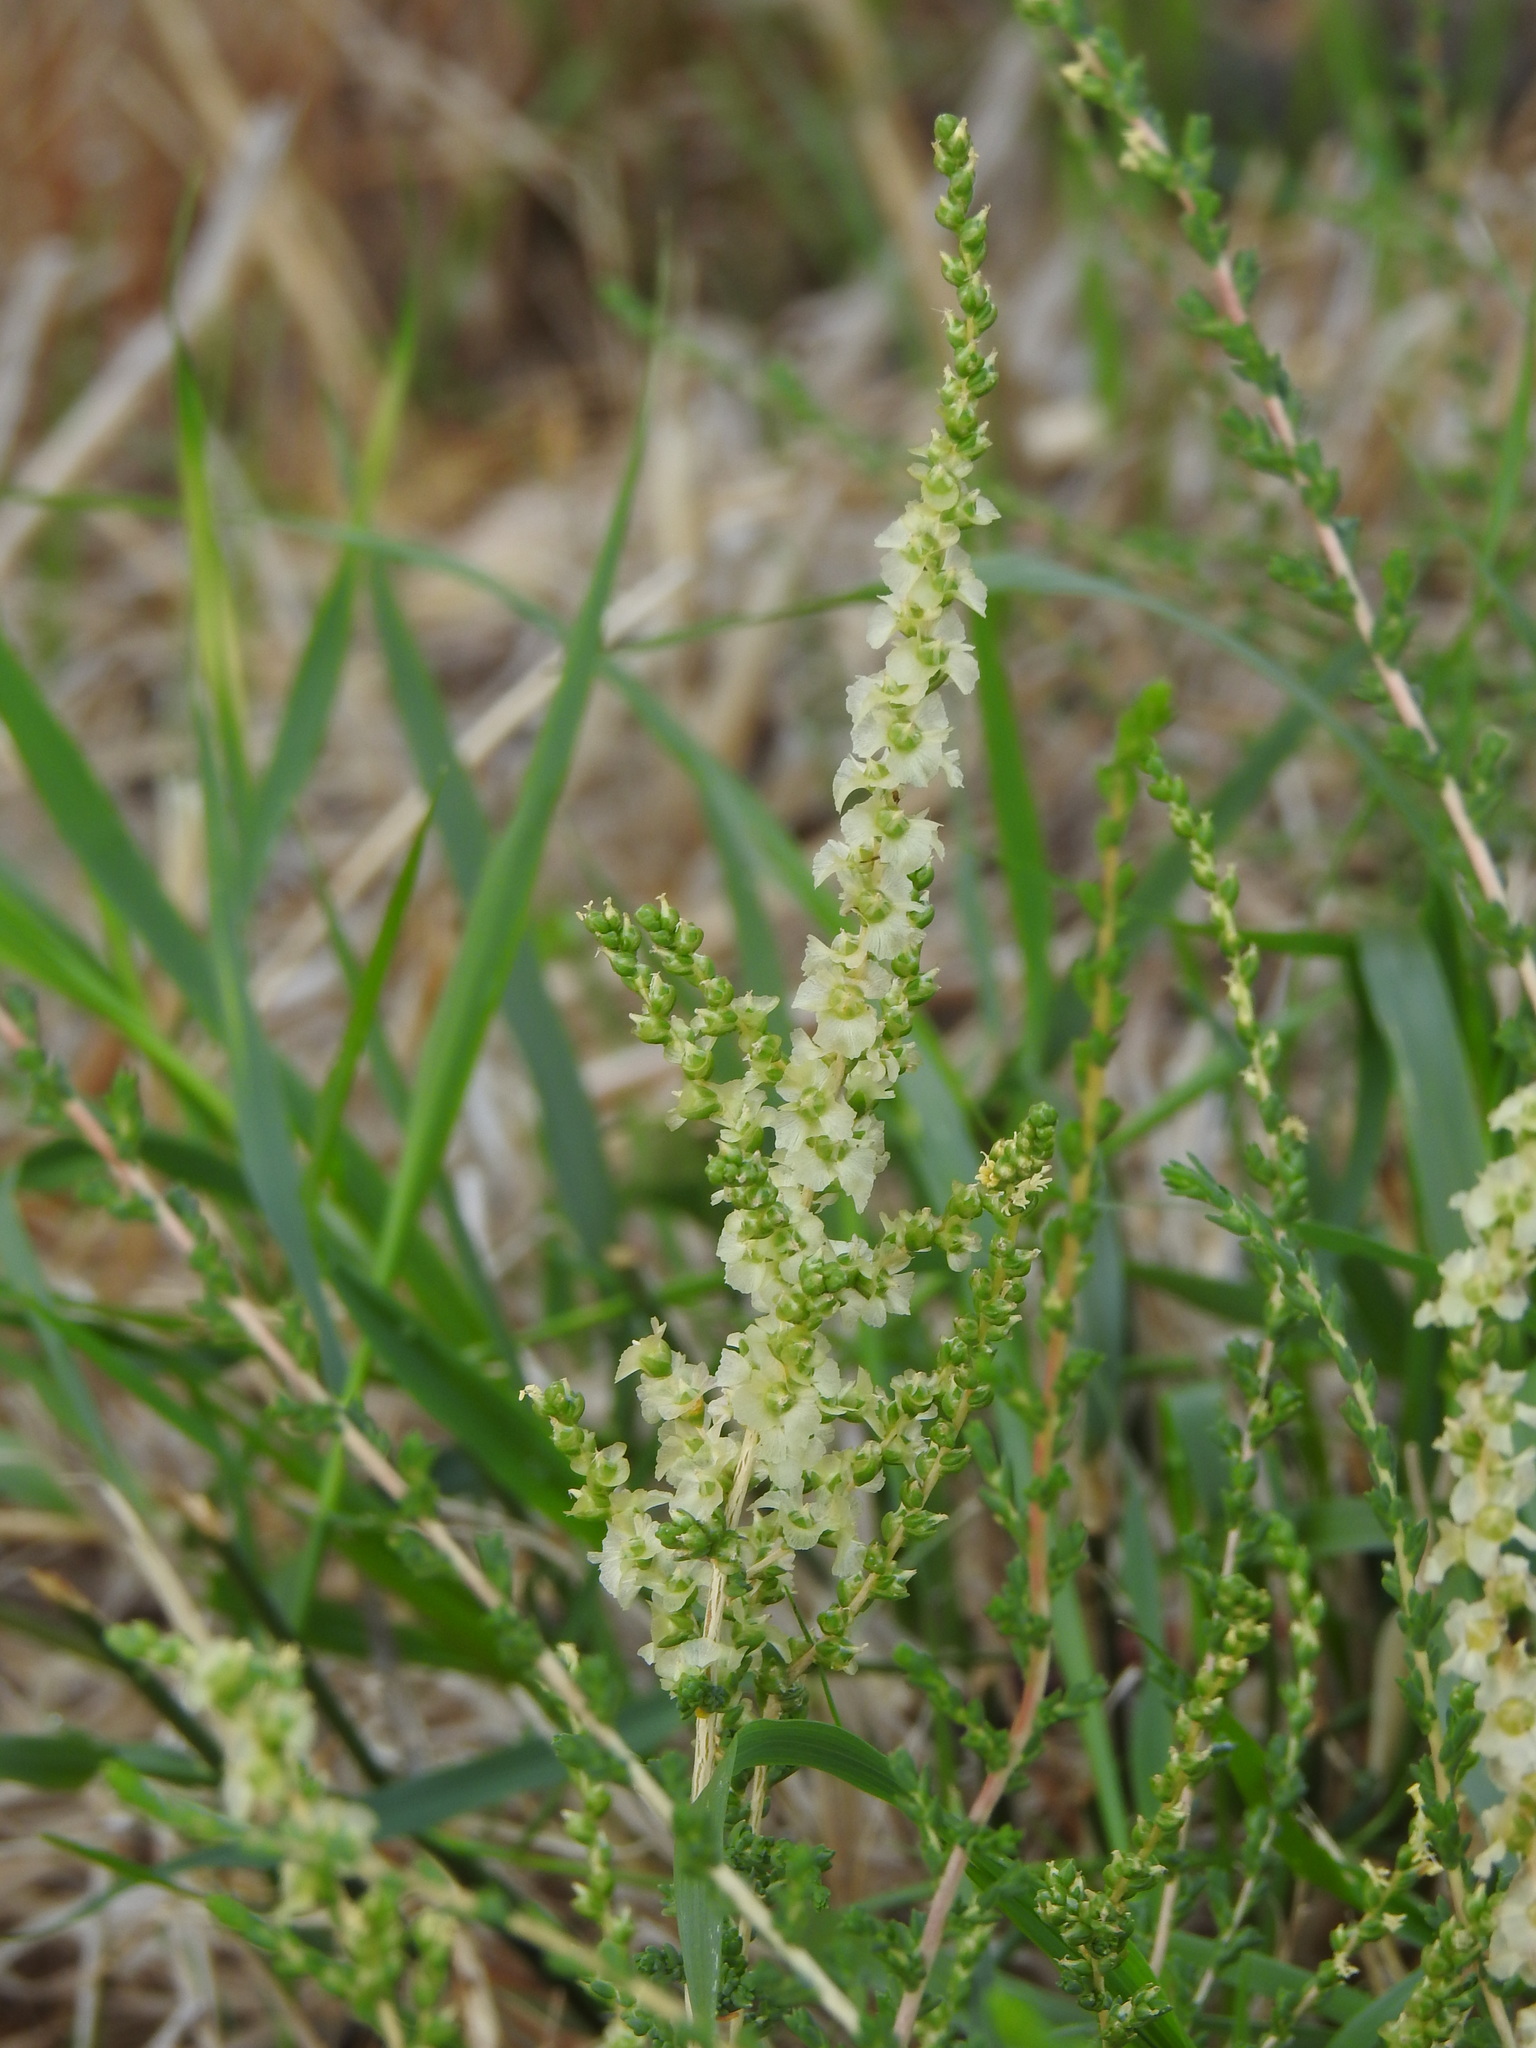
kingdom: Plantae
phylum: Tracheophyta
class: Magnoliopsida
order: Caryophyllales
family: Amaranthaceae
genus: Nitrosalsola
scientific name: Nitrosalsola vermiculata
